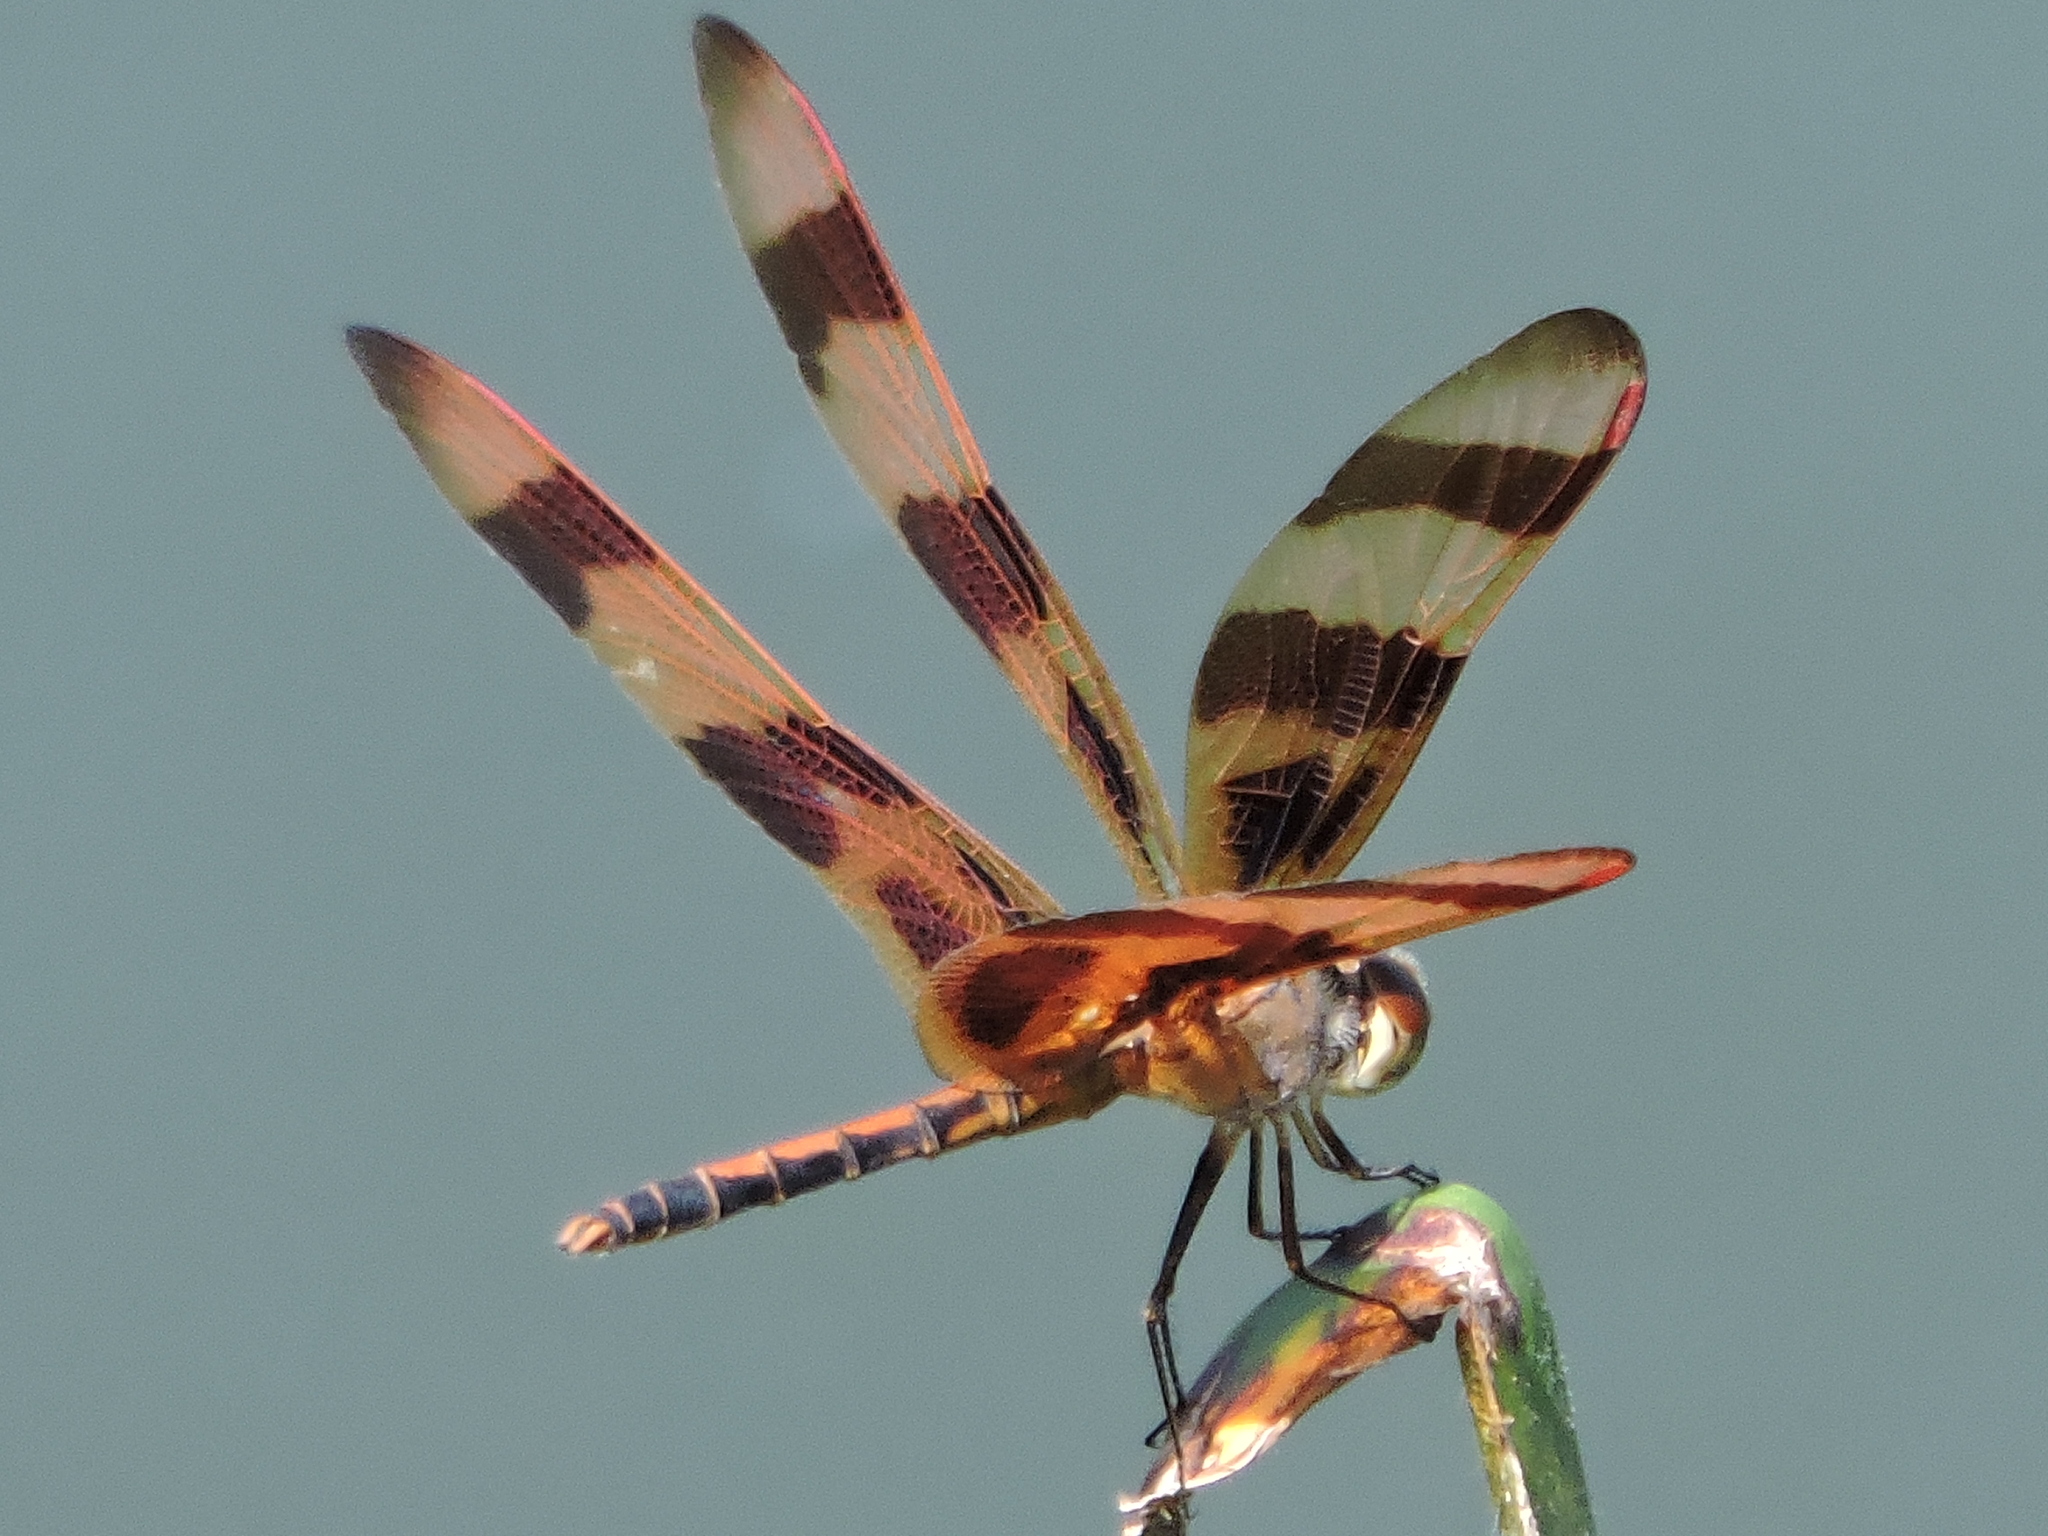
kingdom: Animalia
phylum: Arthropoda
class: Insecta
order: Odonata
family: Libellulidae
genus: Celithemis
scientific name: Celithemis eponina
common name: Halloween pennant
